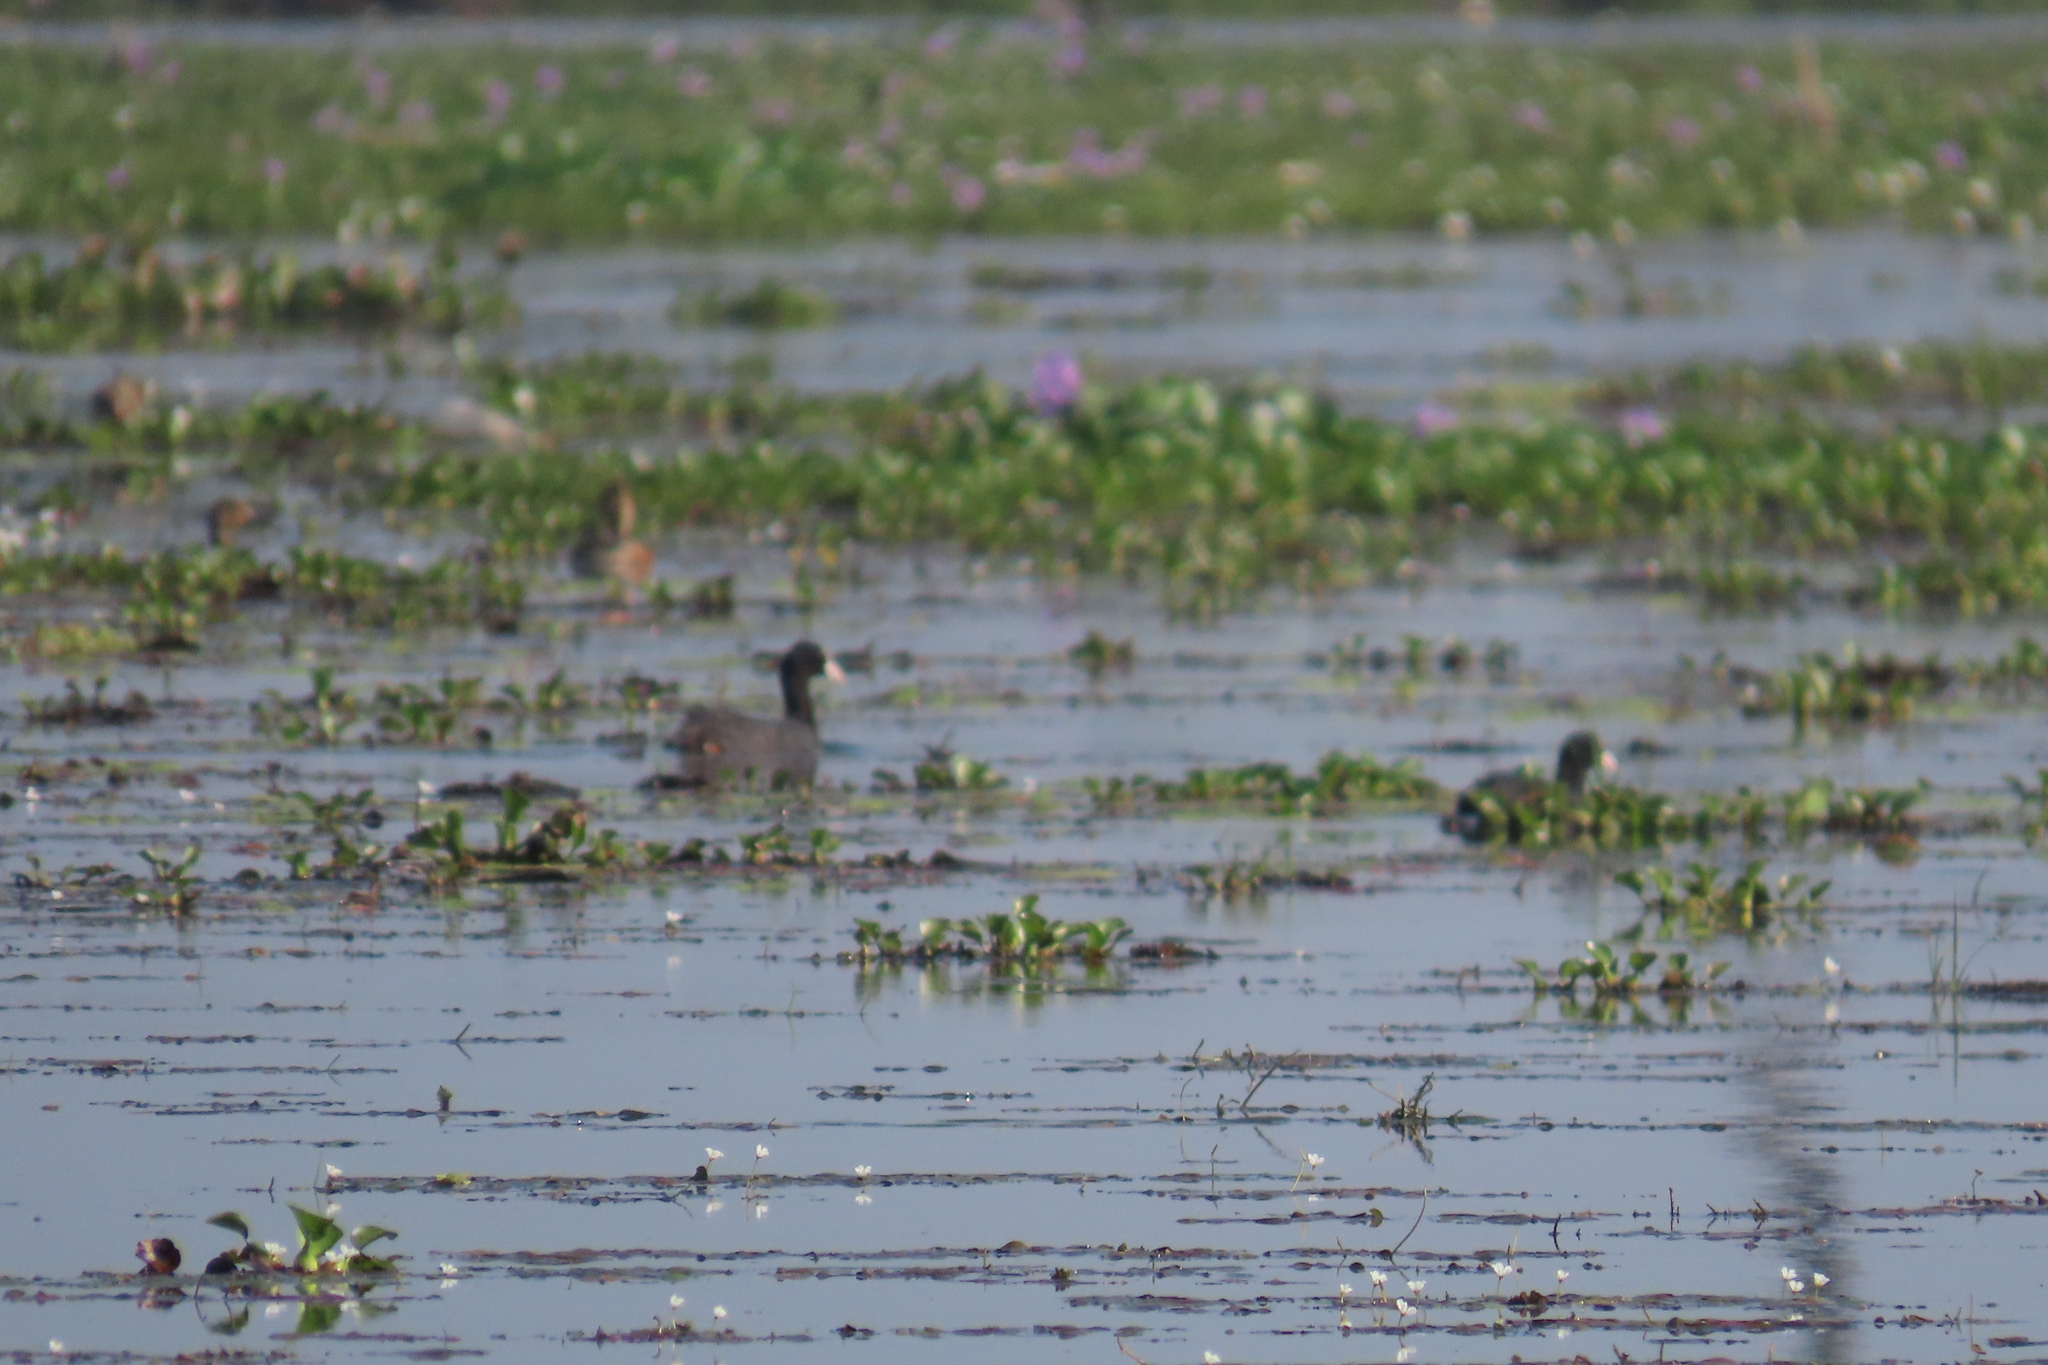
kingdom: Animalia
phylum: Chordata
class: Aves
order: Gruiformes
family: Rallidae
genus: Fulica
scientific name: Fulica atra
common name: Eurasian coot
